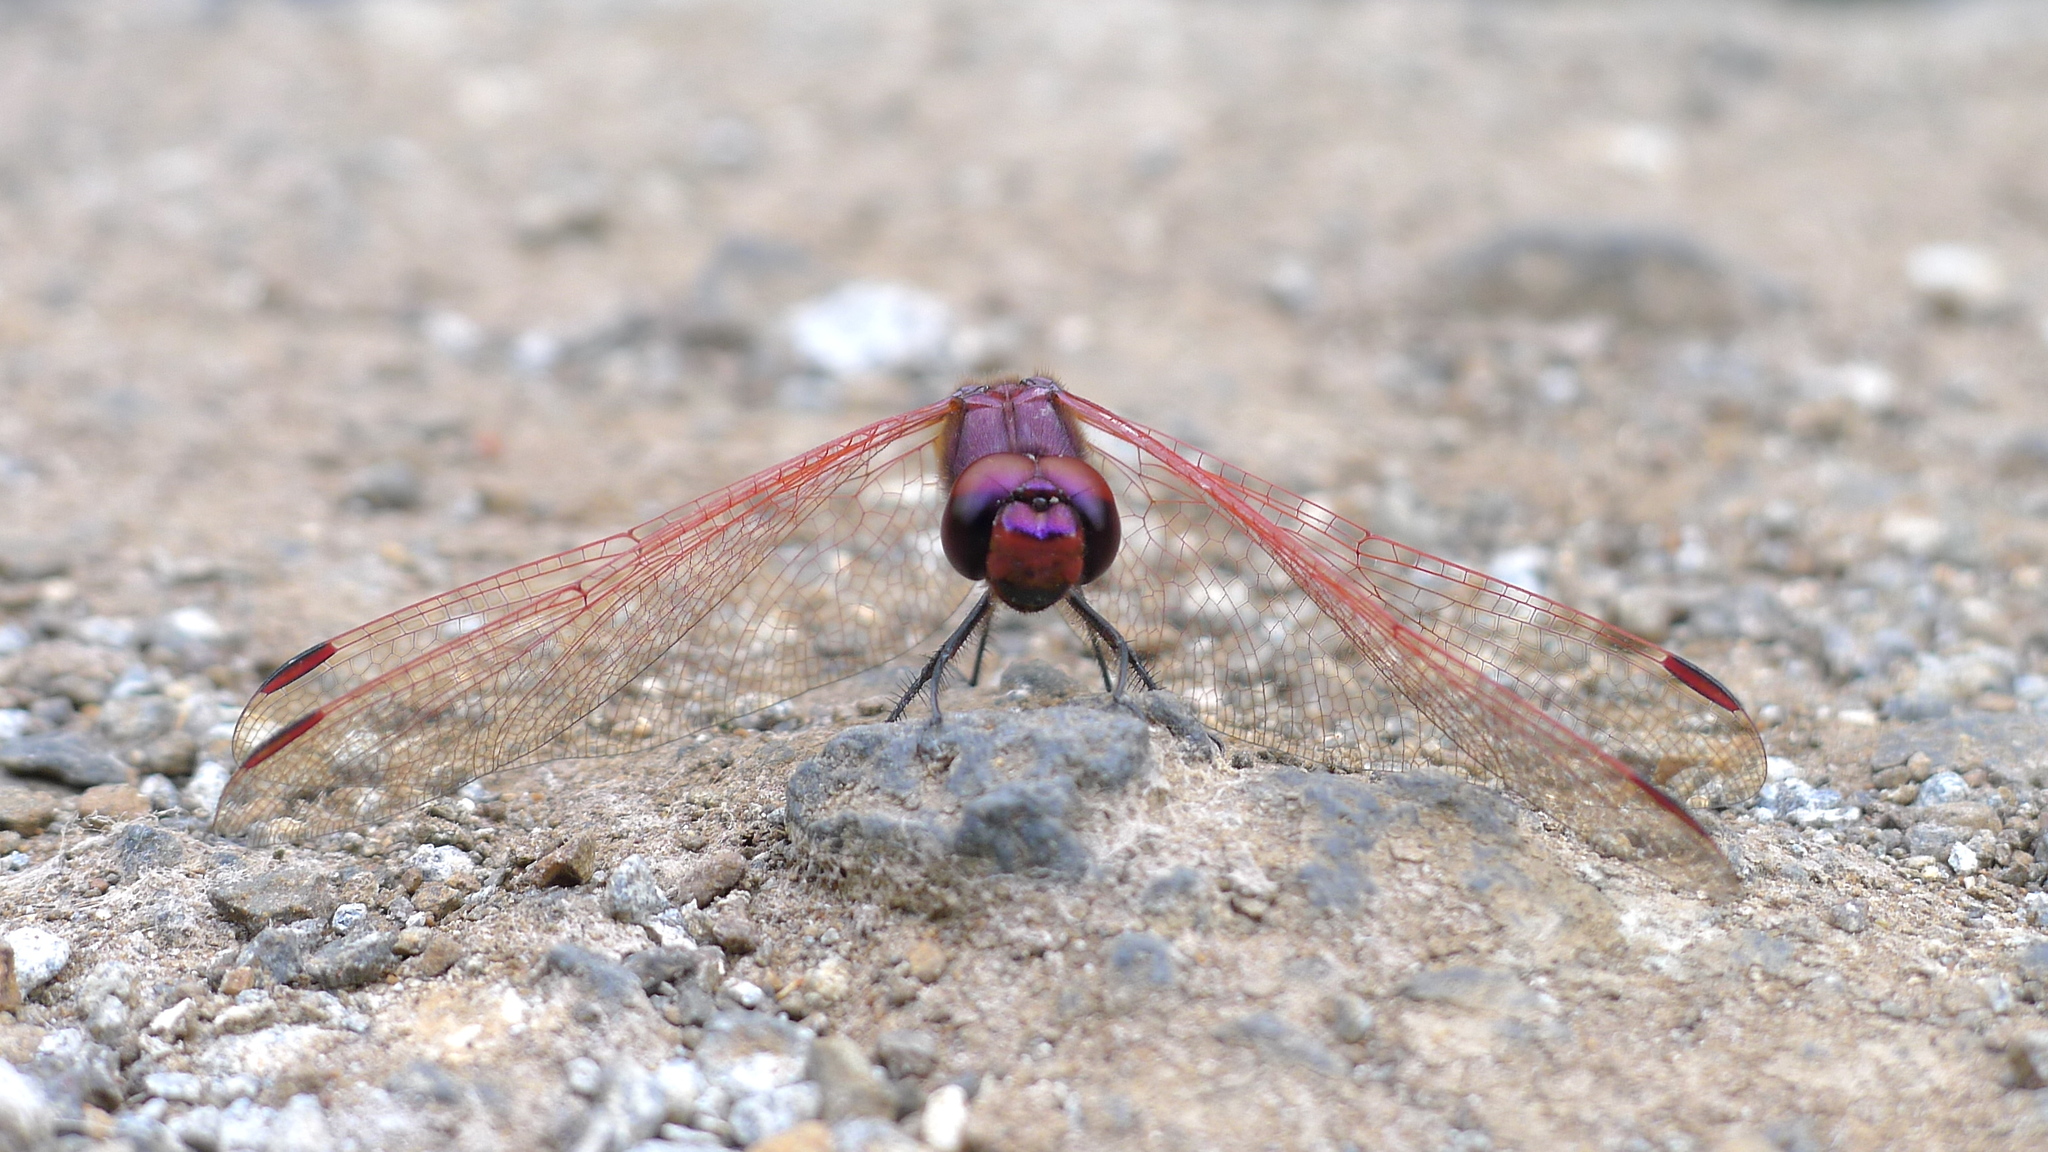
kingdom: Animalia
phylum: Arthropoda
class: Insecta
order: Odonata
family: Libellulidae
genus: Trithemis
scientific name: Trithemis annulata
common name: Violet dropwing
